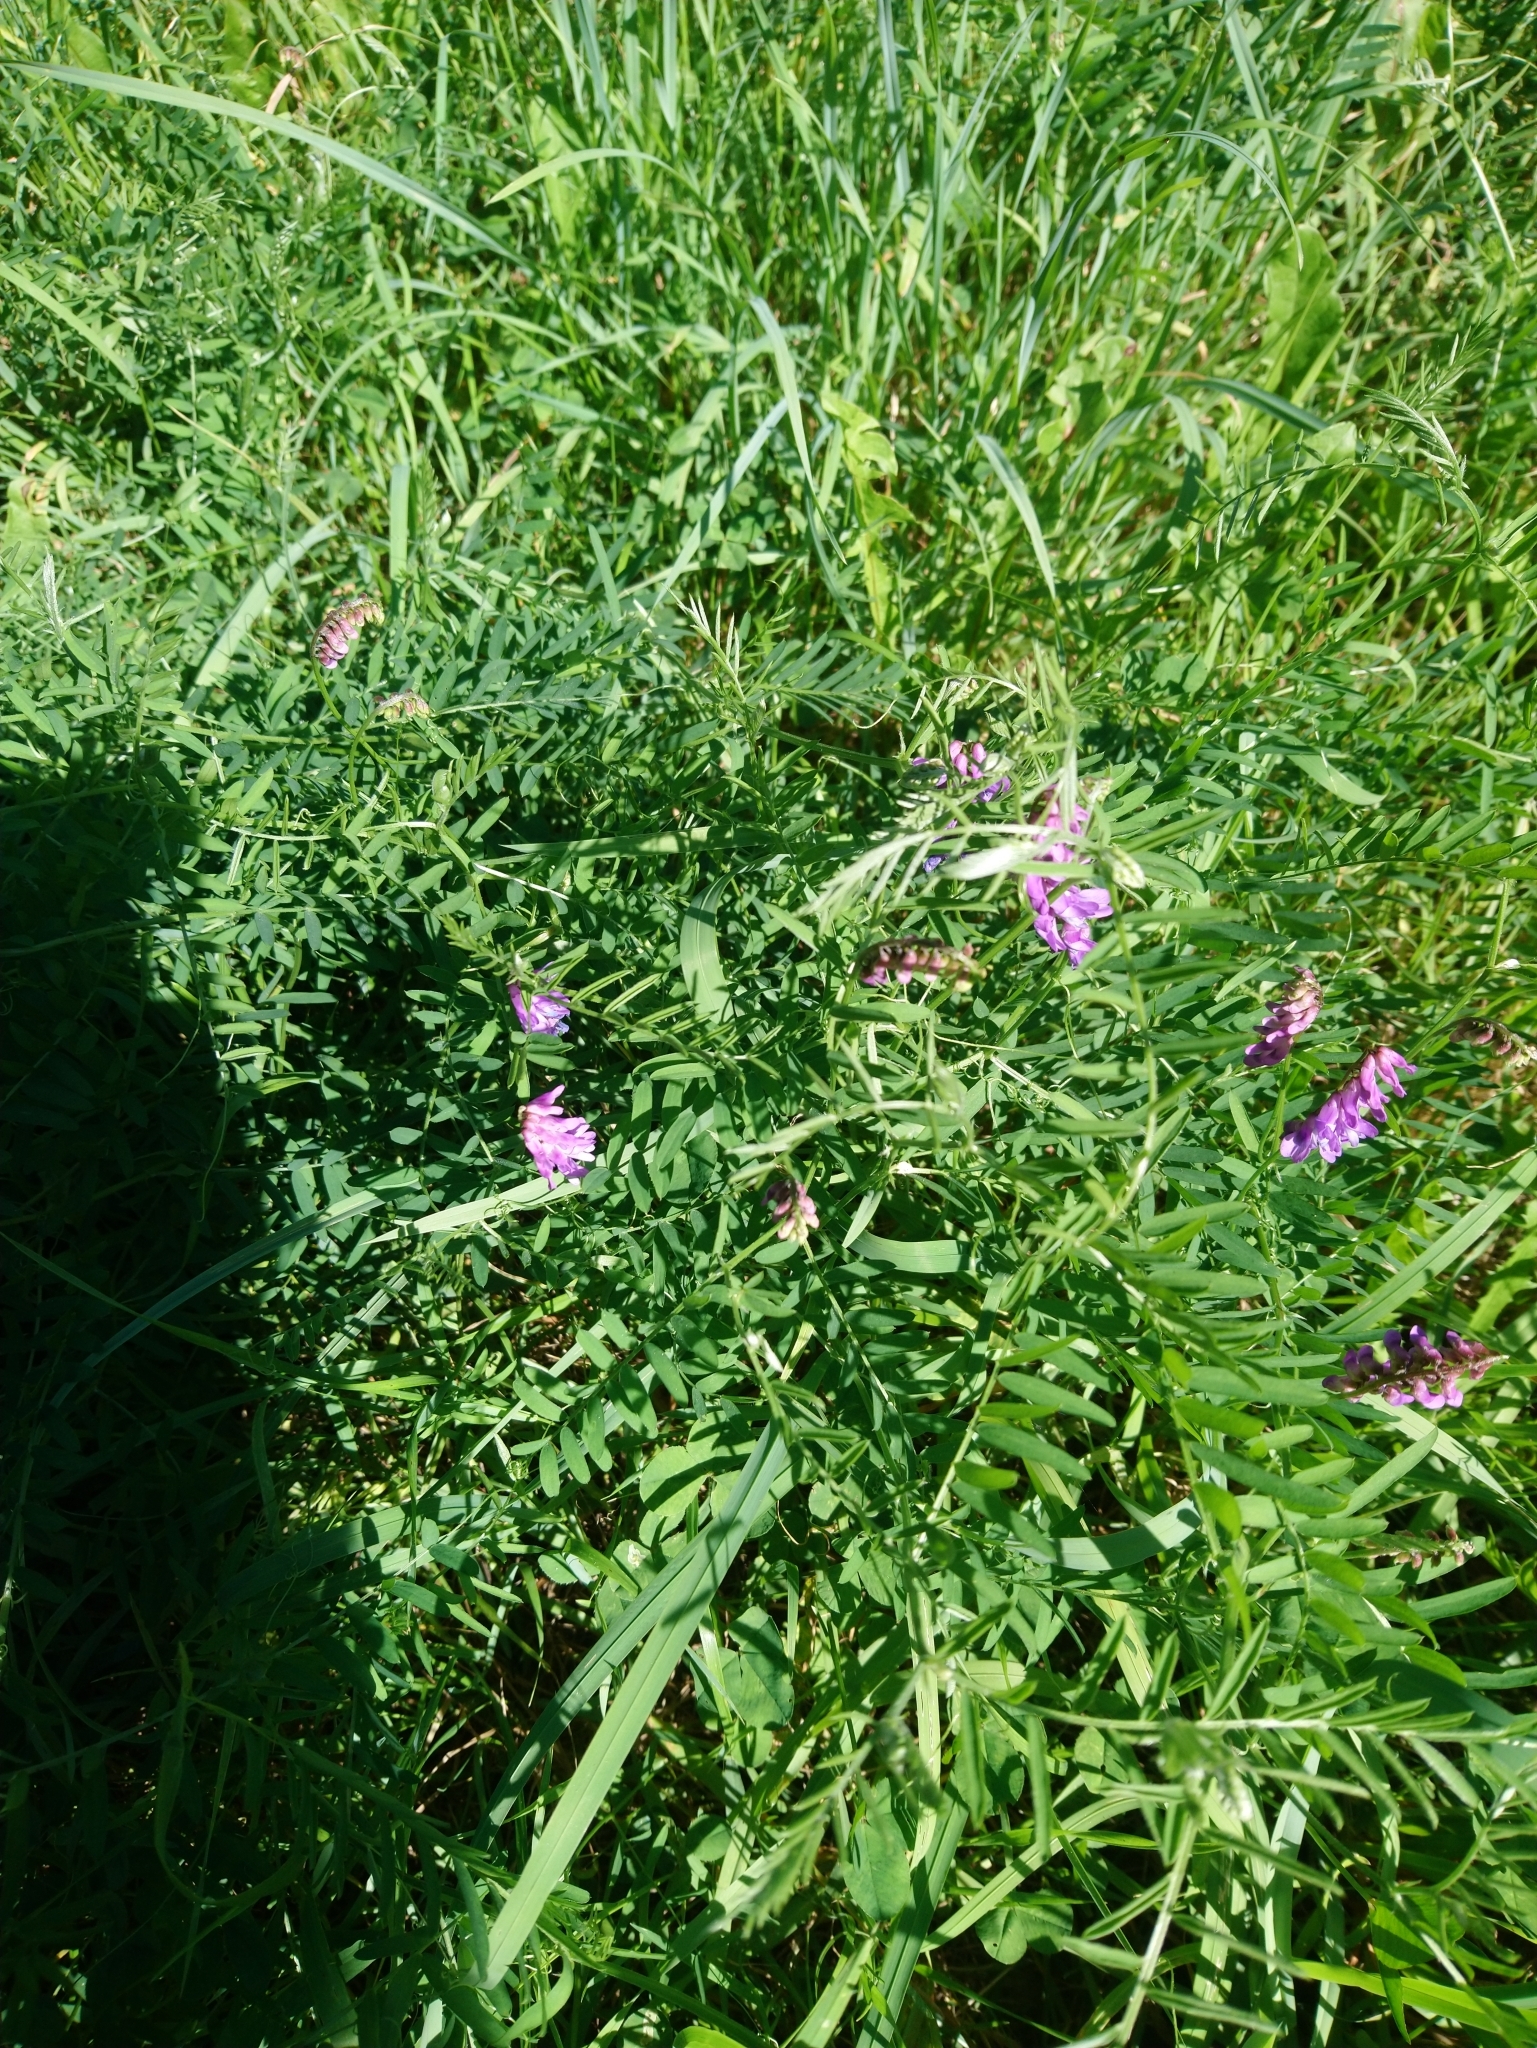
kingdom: Plantae
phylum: Tracheophyta
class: Magnoliopsida
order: Fabales
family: Fabaceae
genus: Vicia
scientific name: Vicia cracca
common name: Bird vetch
